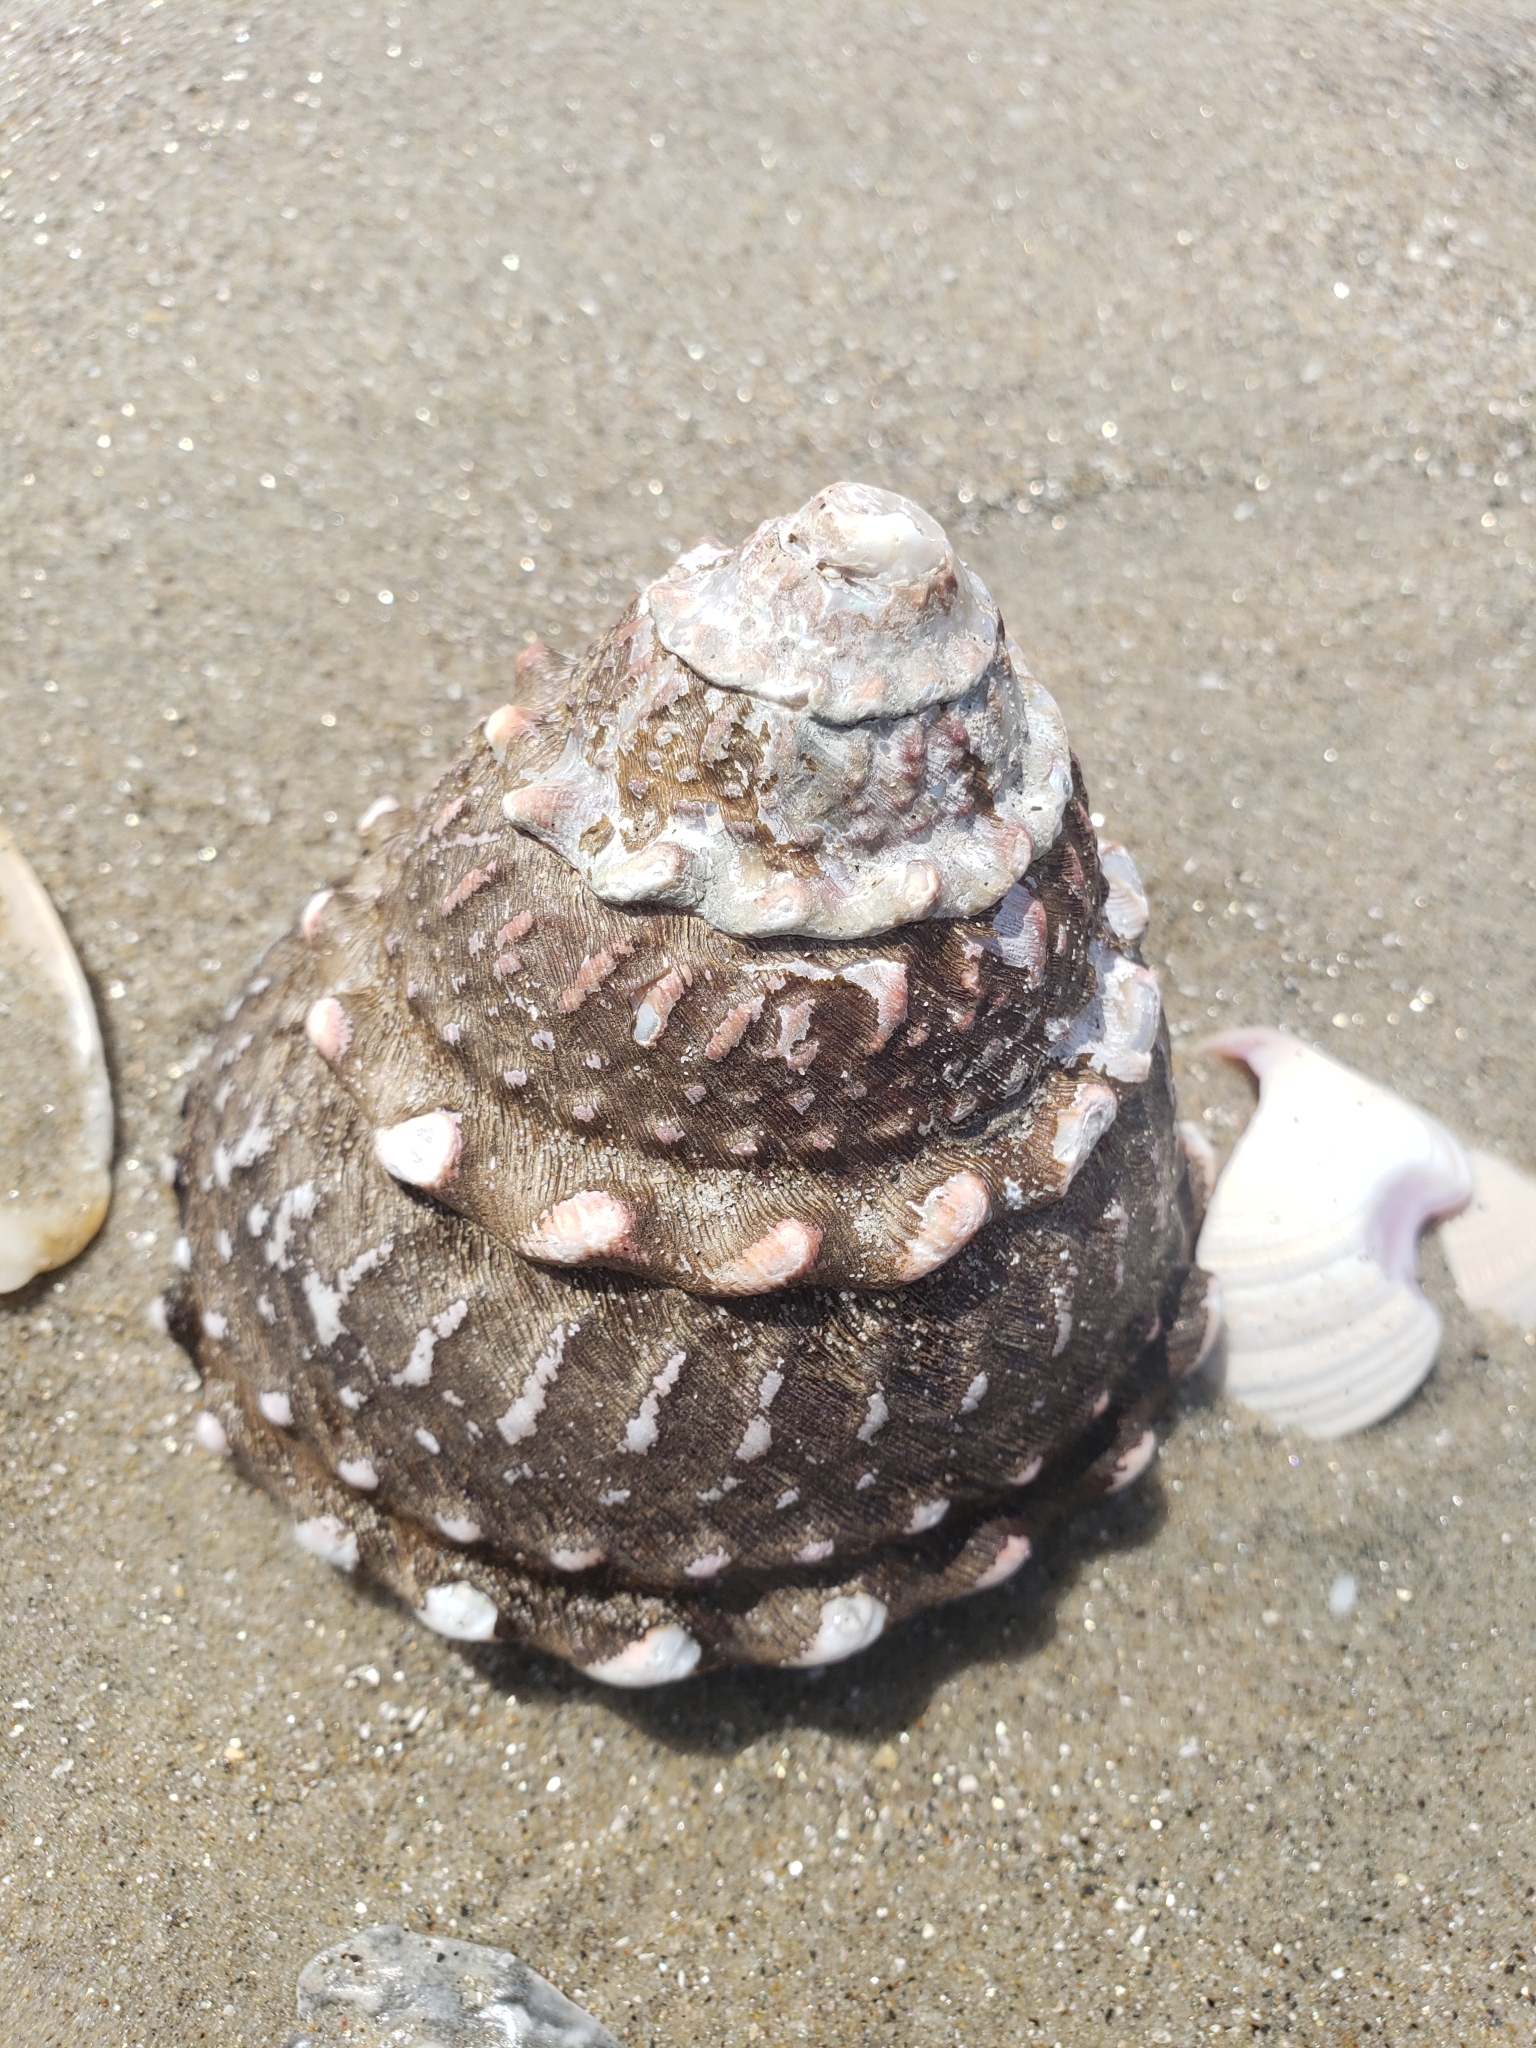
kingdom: Animalia
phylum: Mollusca
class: Gastropoda
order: Trochida
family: Turbinidae
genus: Megastraea
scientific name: Megastraea undosa
